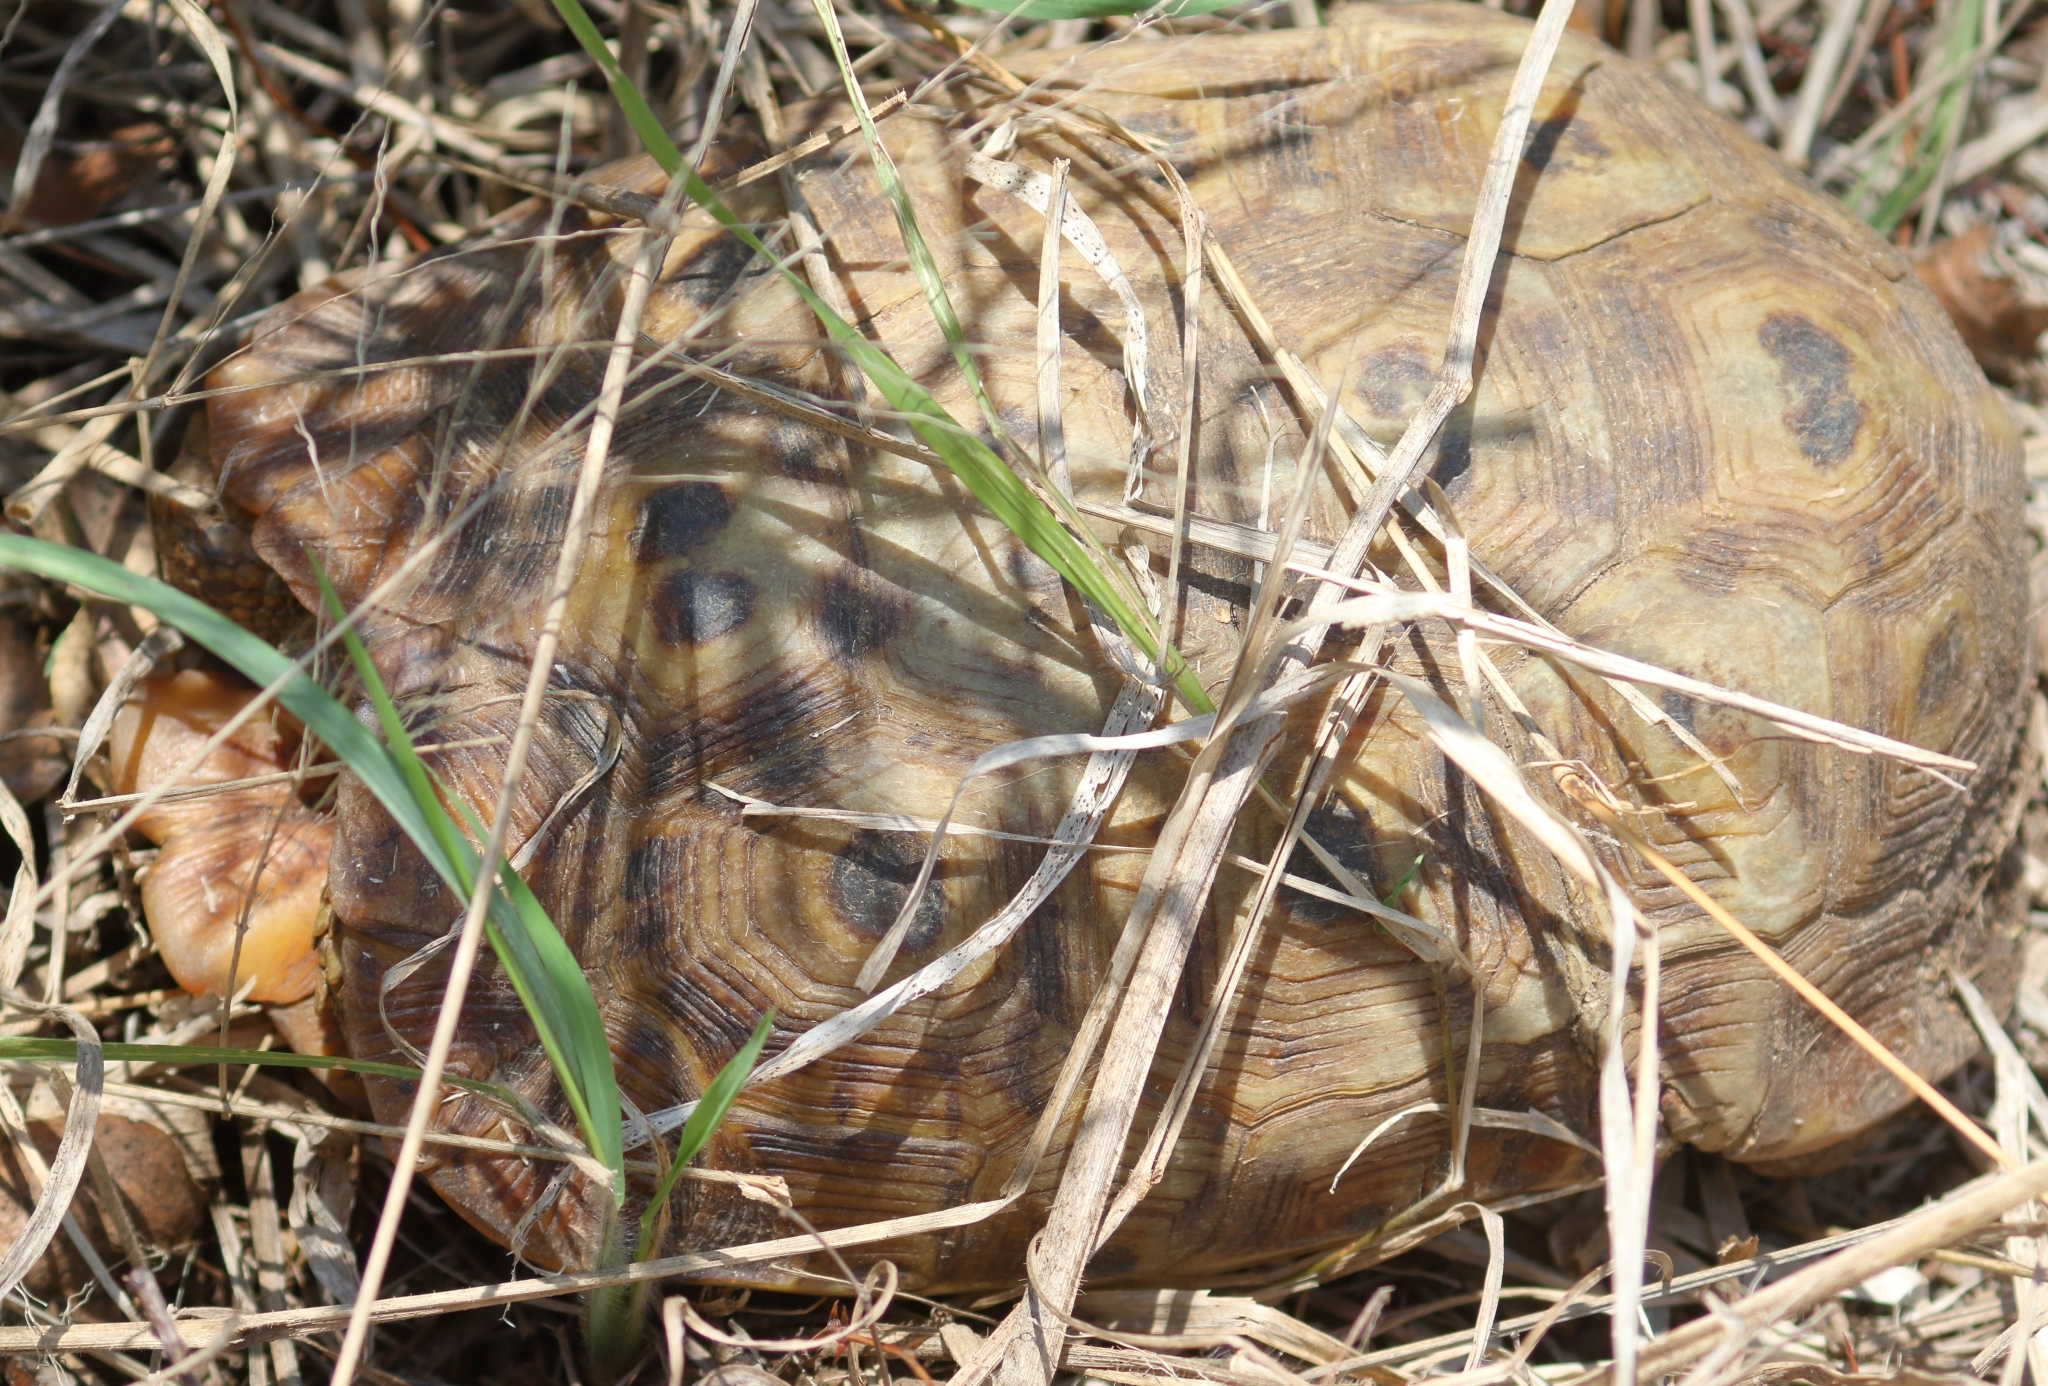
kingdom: Animalia
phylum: Chordata
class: Testudines
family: Testudinidae
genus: Kinixys
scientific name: Kinixys spekii
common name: Speke's hingeback tortoise
